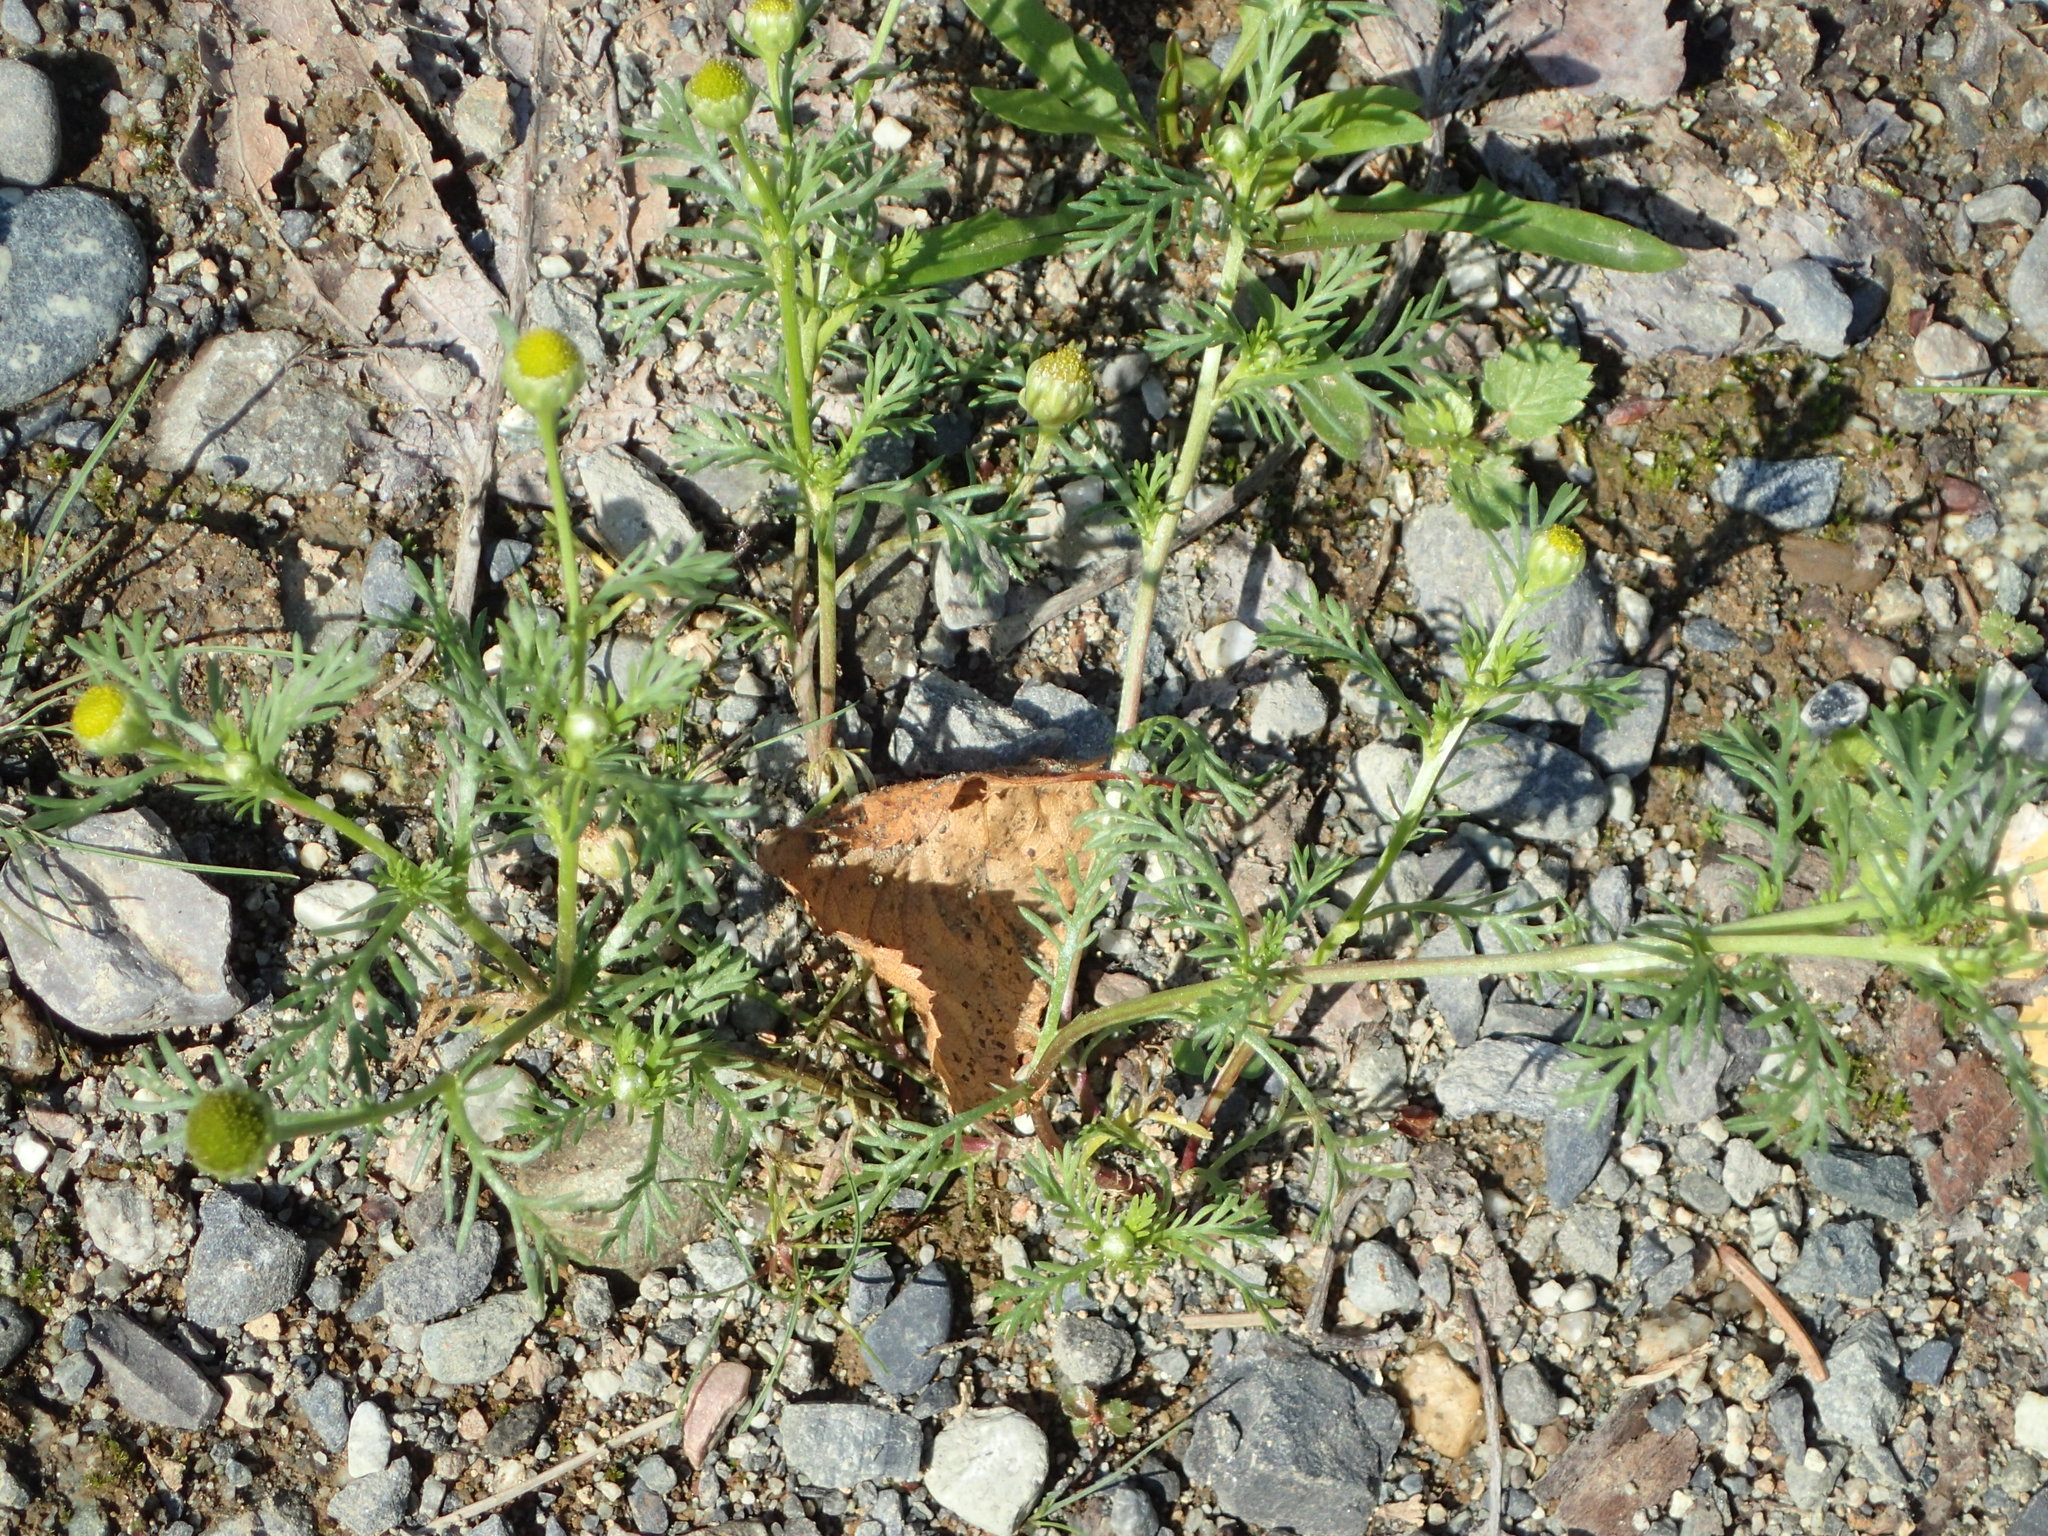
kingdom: Plantae
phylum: Tracheophyta
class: Magnoliopsida
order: Asterales
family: Asteraceae
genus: Matricaria
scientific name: Matricaria discoidea
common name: Disc mayweed
